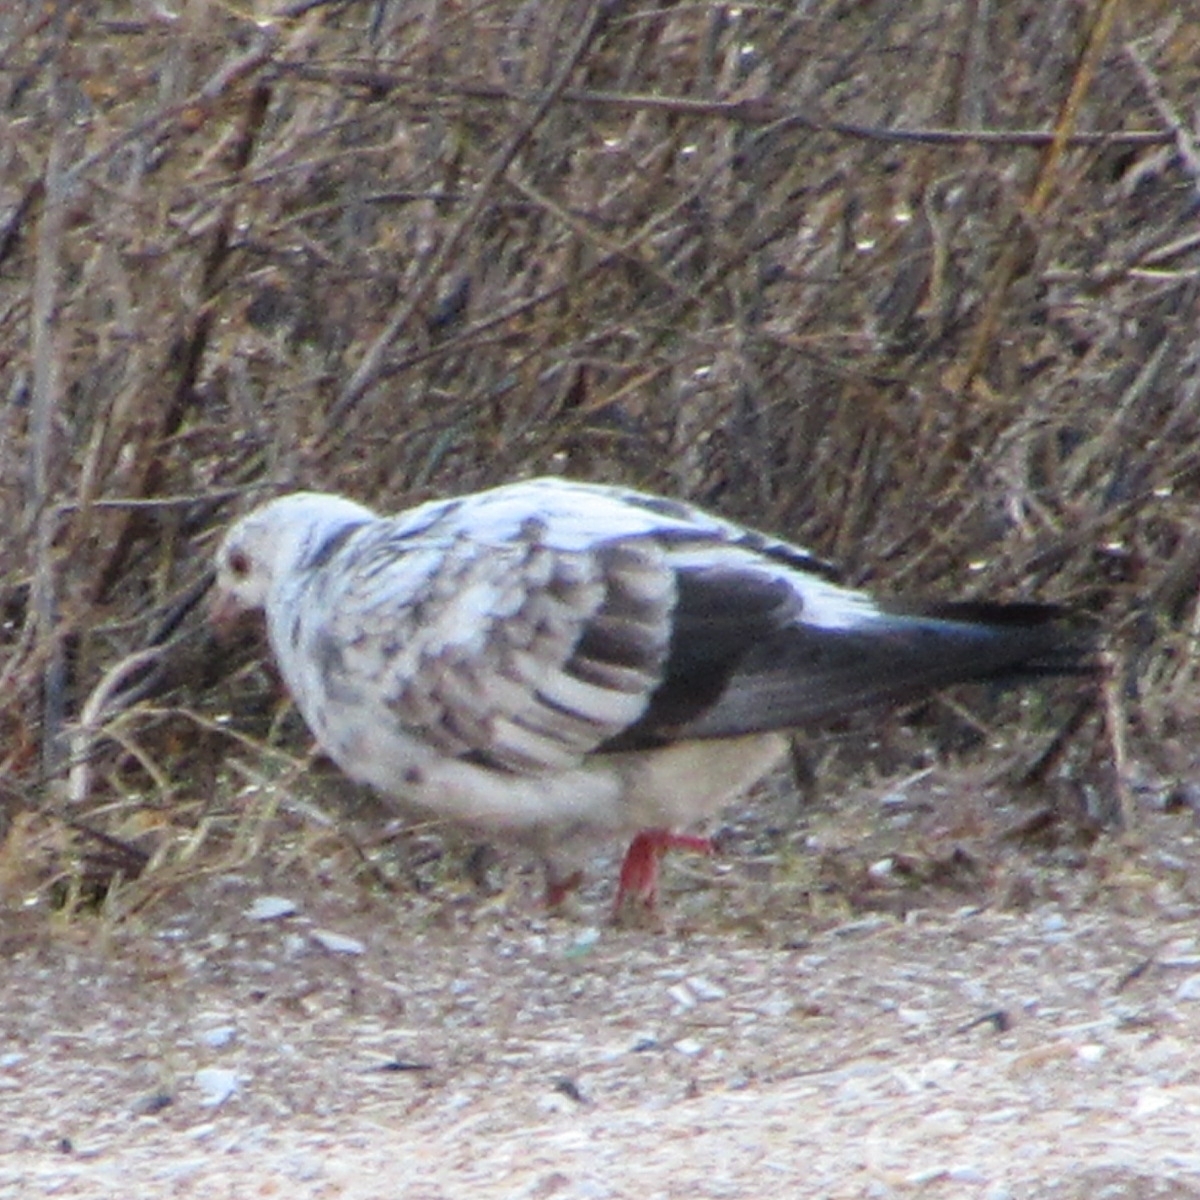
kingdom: Animalia
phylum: Chordata
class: Aves
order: Columbiformes
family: Columbidae
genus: Columba
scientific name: Columba livia
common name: Rock pigeon
